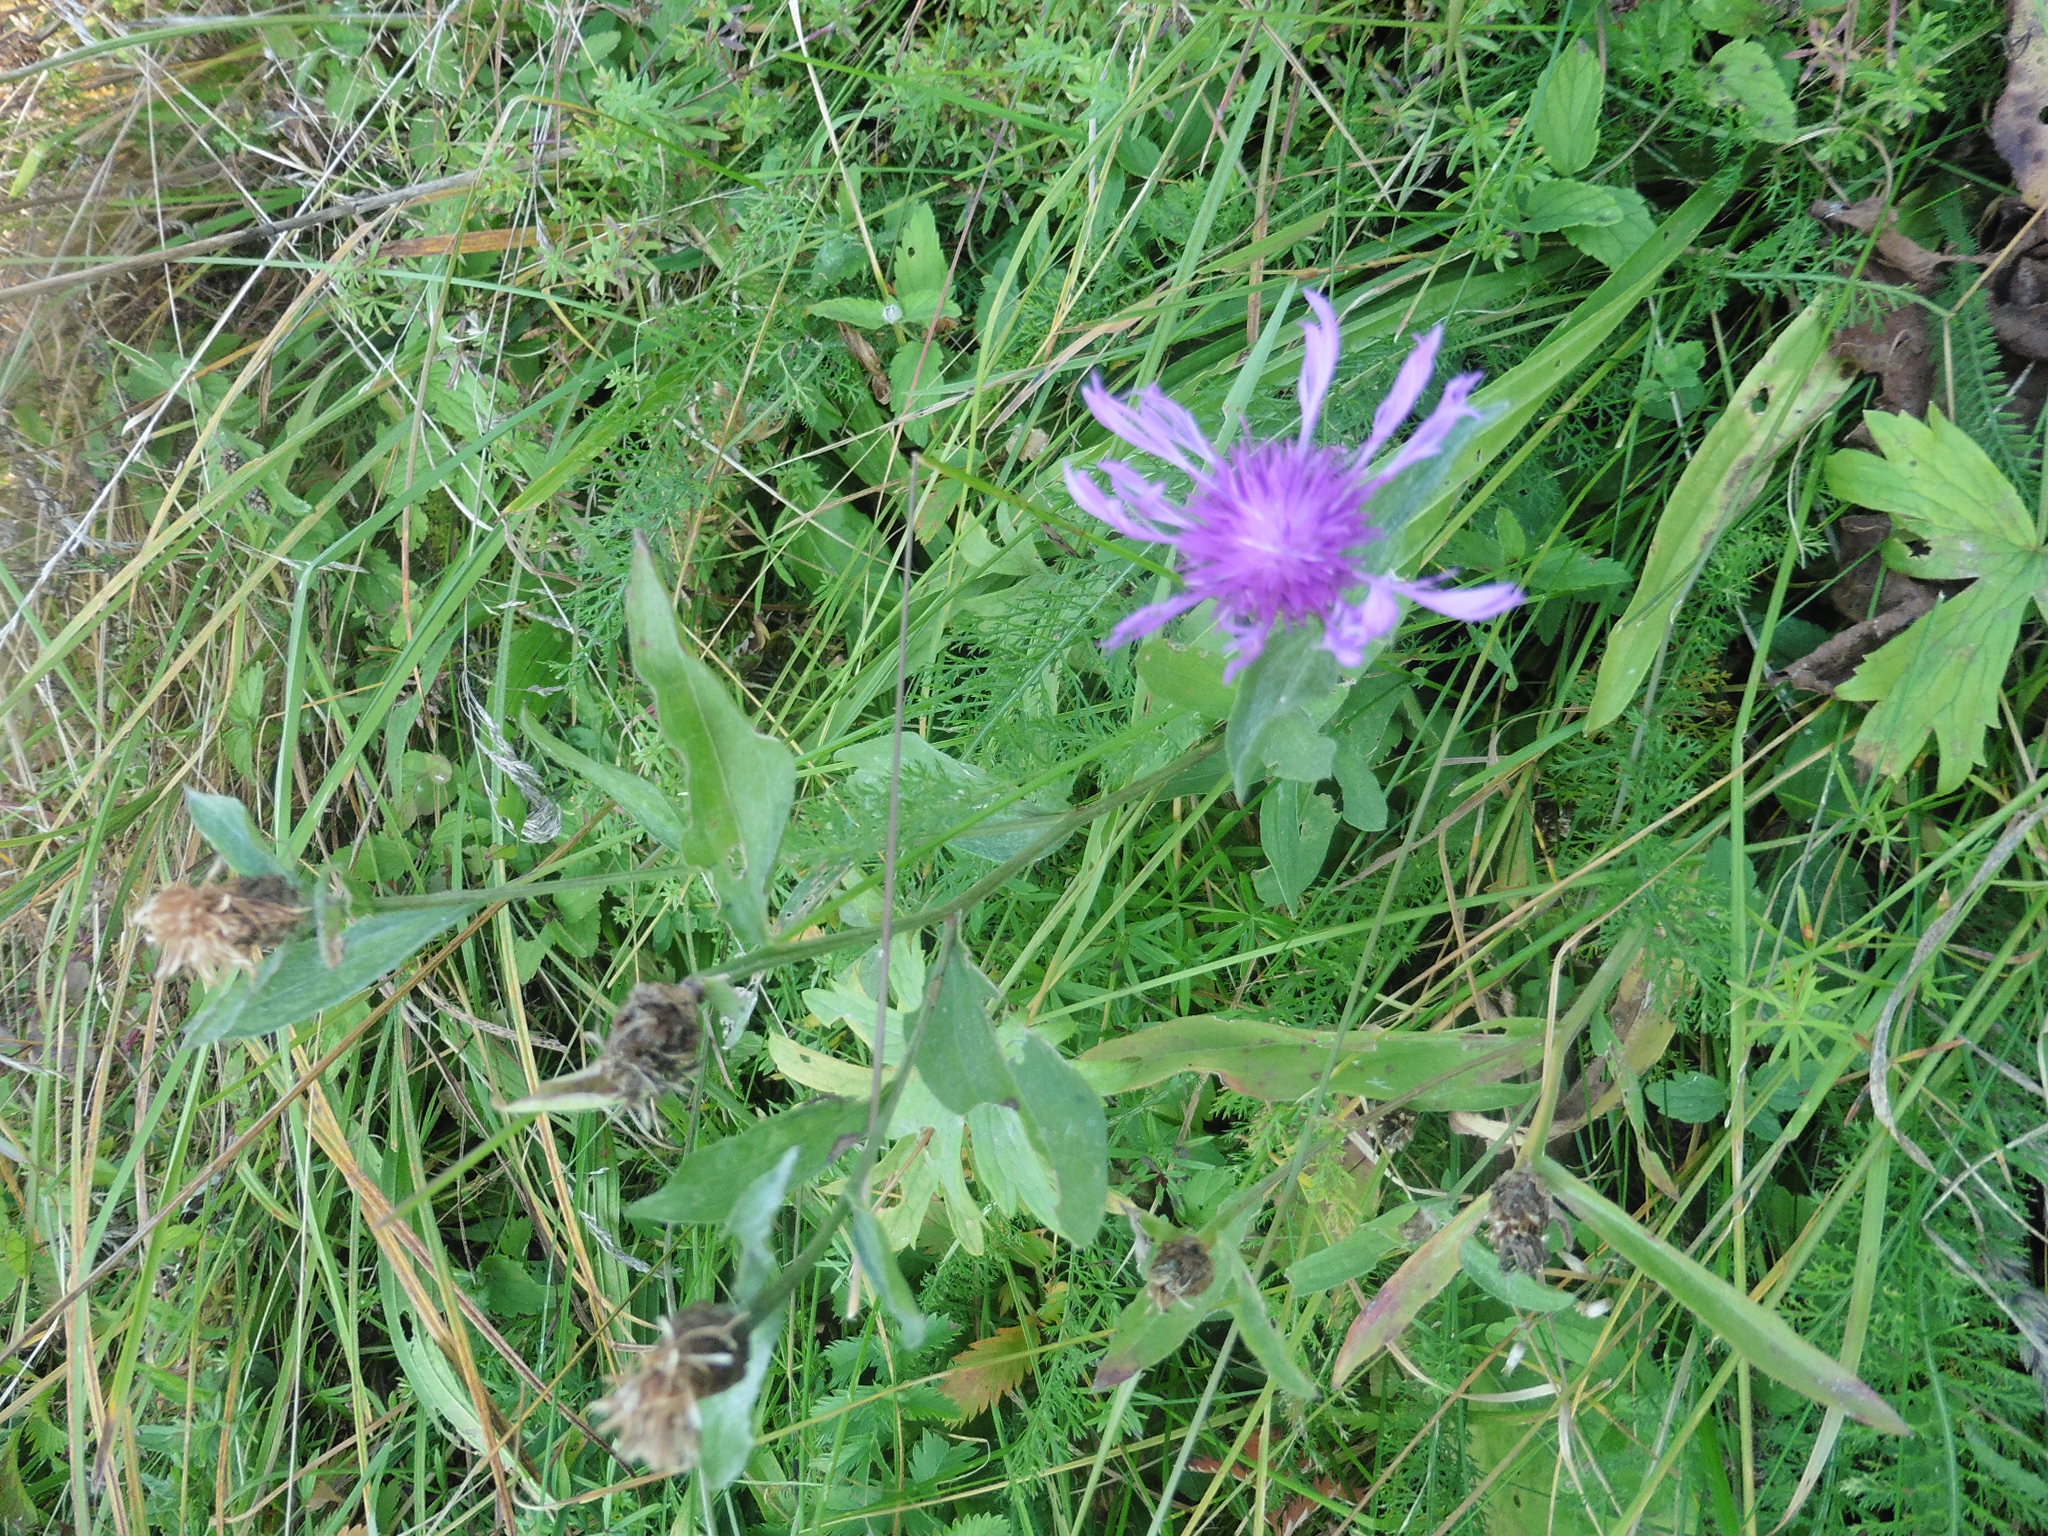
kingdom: Plantae
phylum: Tracheophyta
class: Magnoliopsida
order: Asterales
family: Asteraceae
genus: Centaurea
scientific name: Centaurea jacea
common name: Brown knapweed
